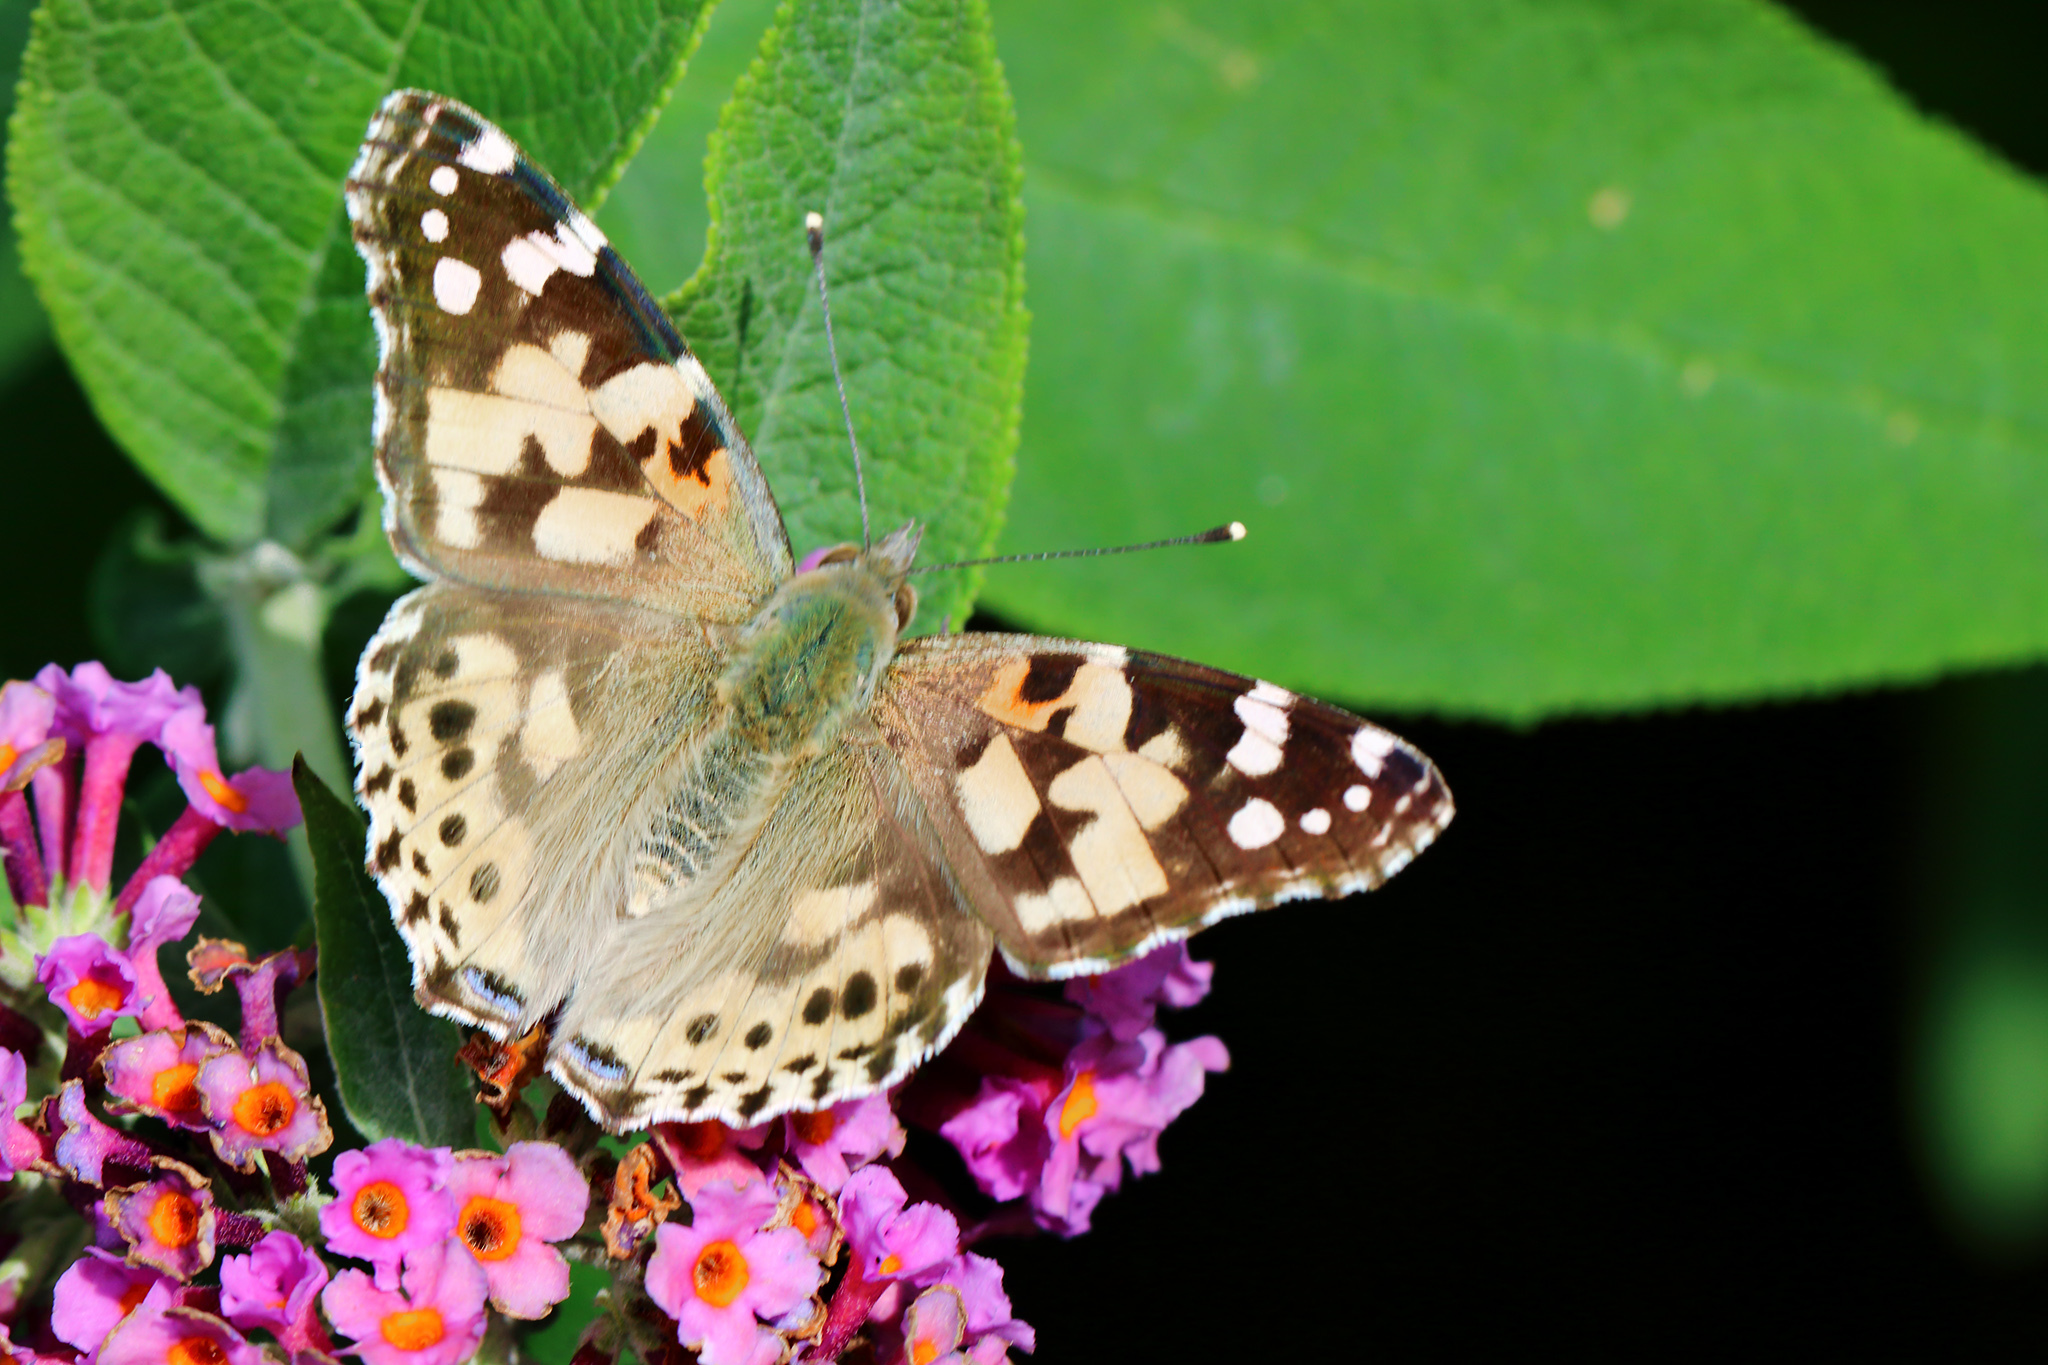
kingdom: Animalia
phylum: Arthropoda
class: Insecta
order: Lepidoptera
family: Nymphalidae
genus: Vanessa
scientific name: Vanessa cardui
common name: Painted lady
